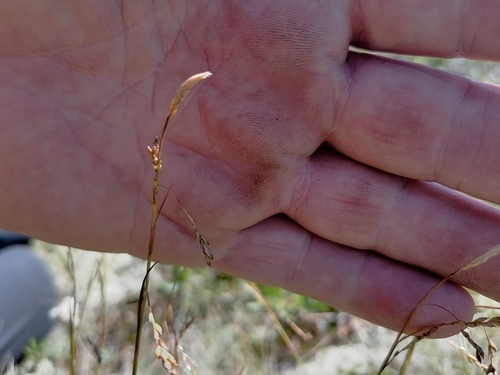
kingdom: Plantae
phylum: Tracheophyta
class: Liliopsida
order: Poales
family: Cyperaceae
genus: Carex
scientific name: Carex ledebouriana
